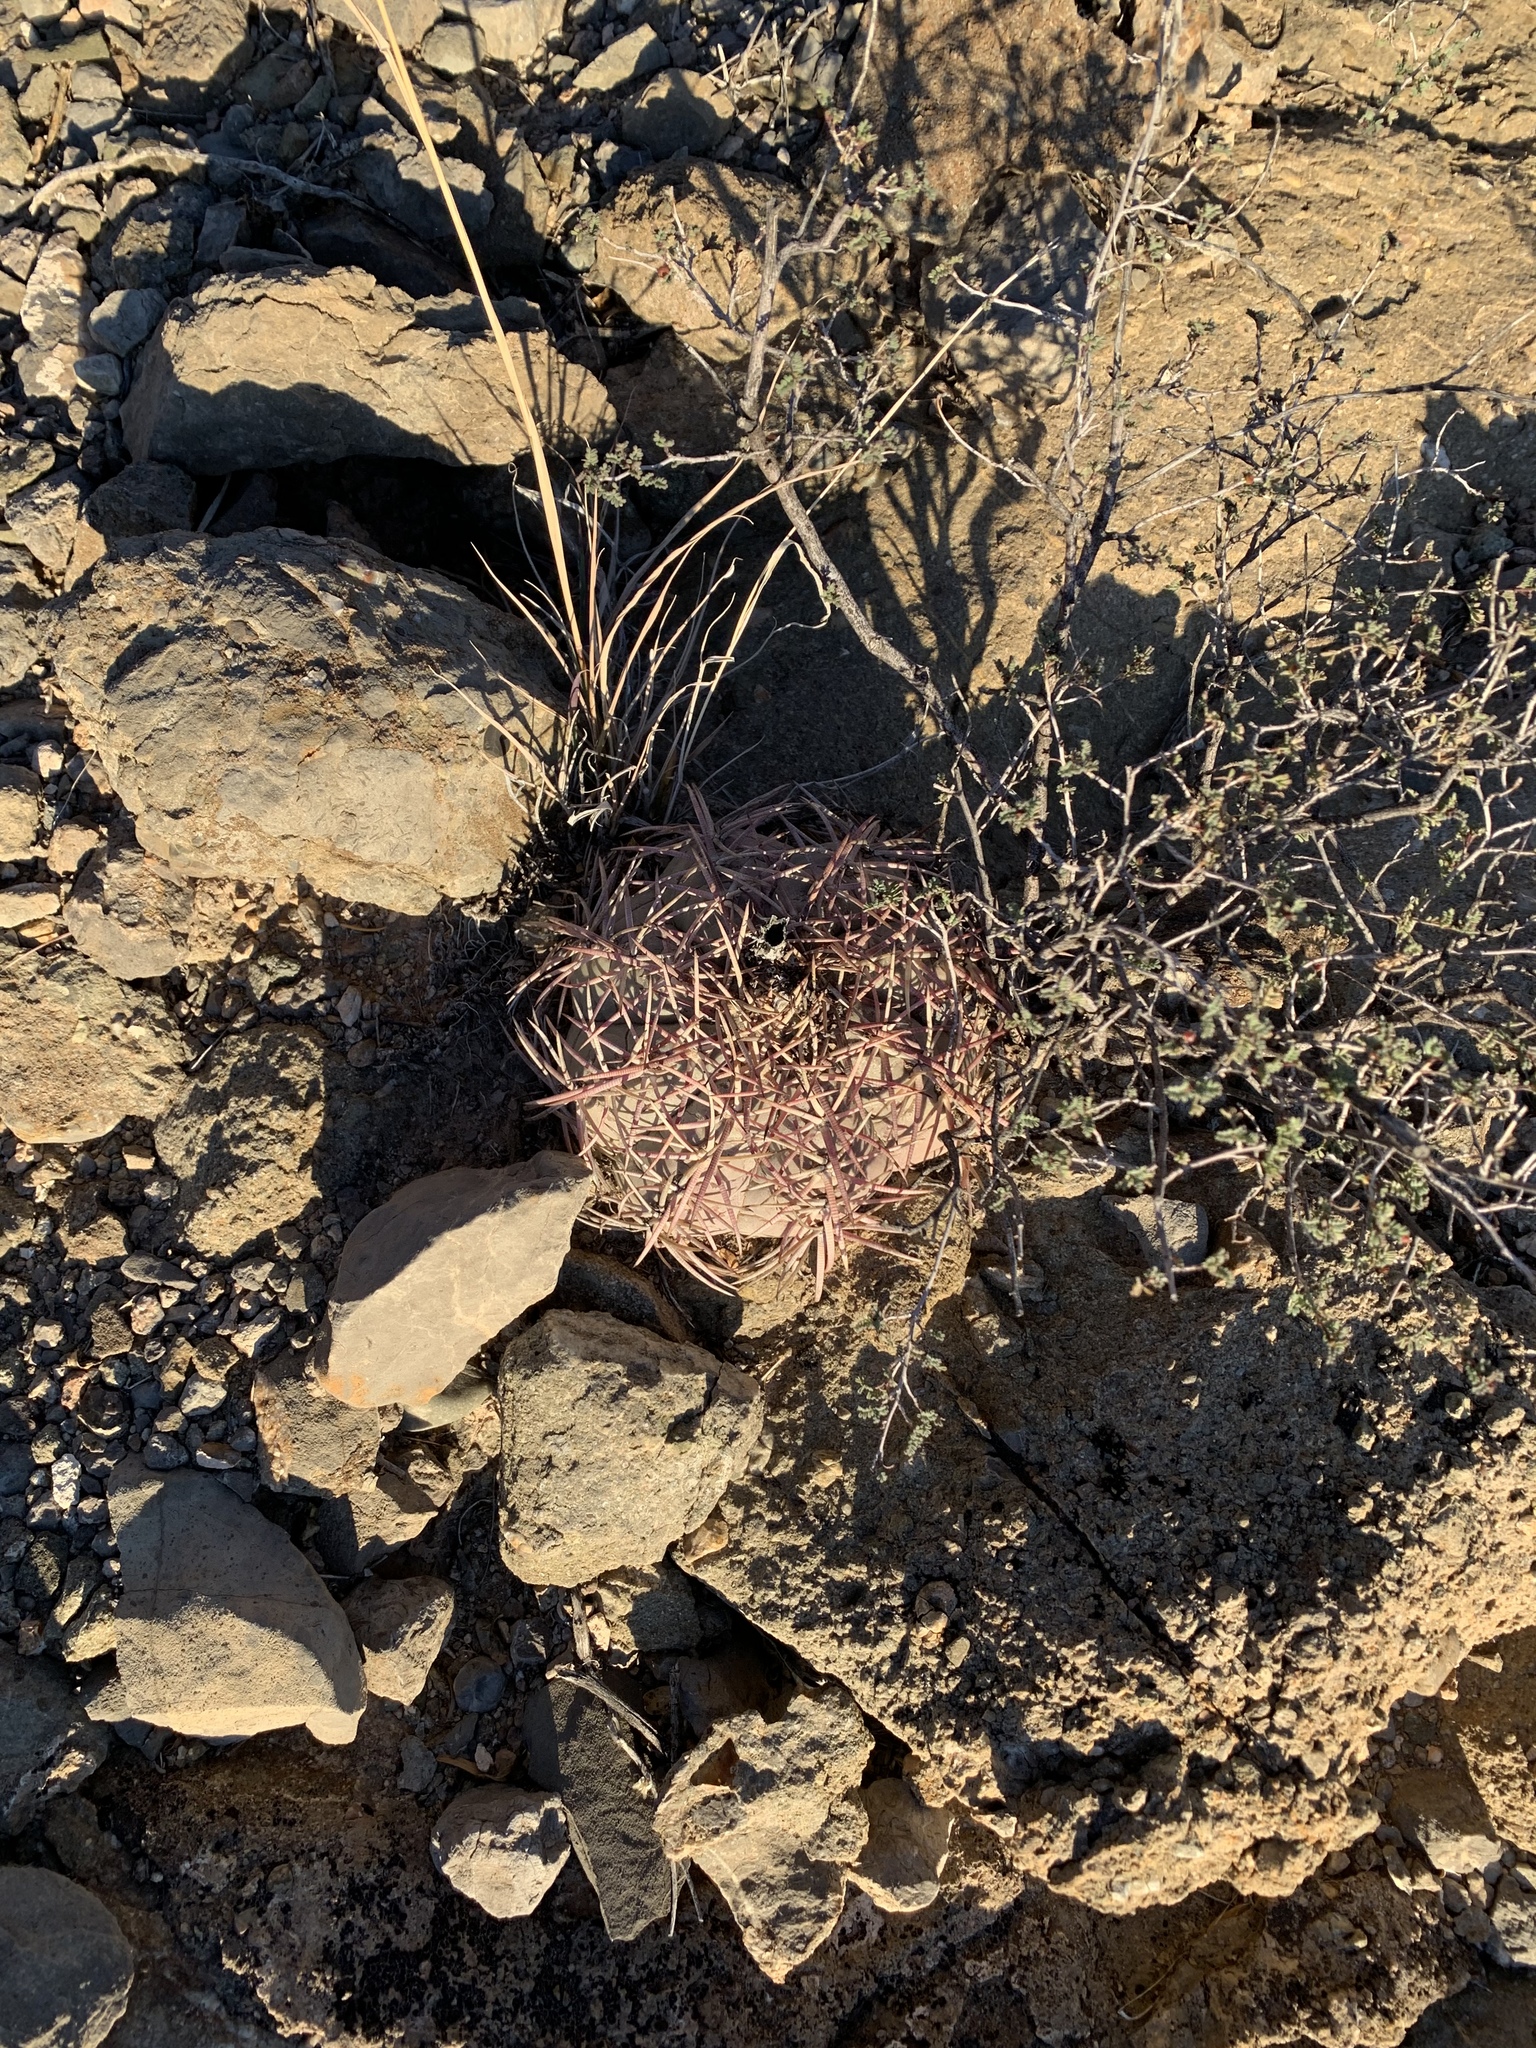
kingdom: Plantae
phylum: Tracheophyta
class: Magnoliopsida
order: Caryophyllales
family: Cactaceae
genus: Echinocactus
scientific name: Echinocactus horizonthalonius
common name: Devilshead
